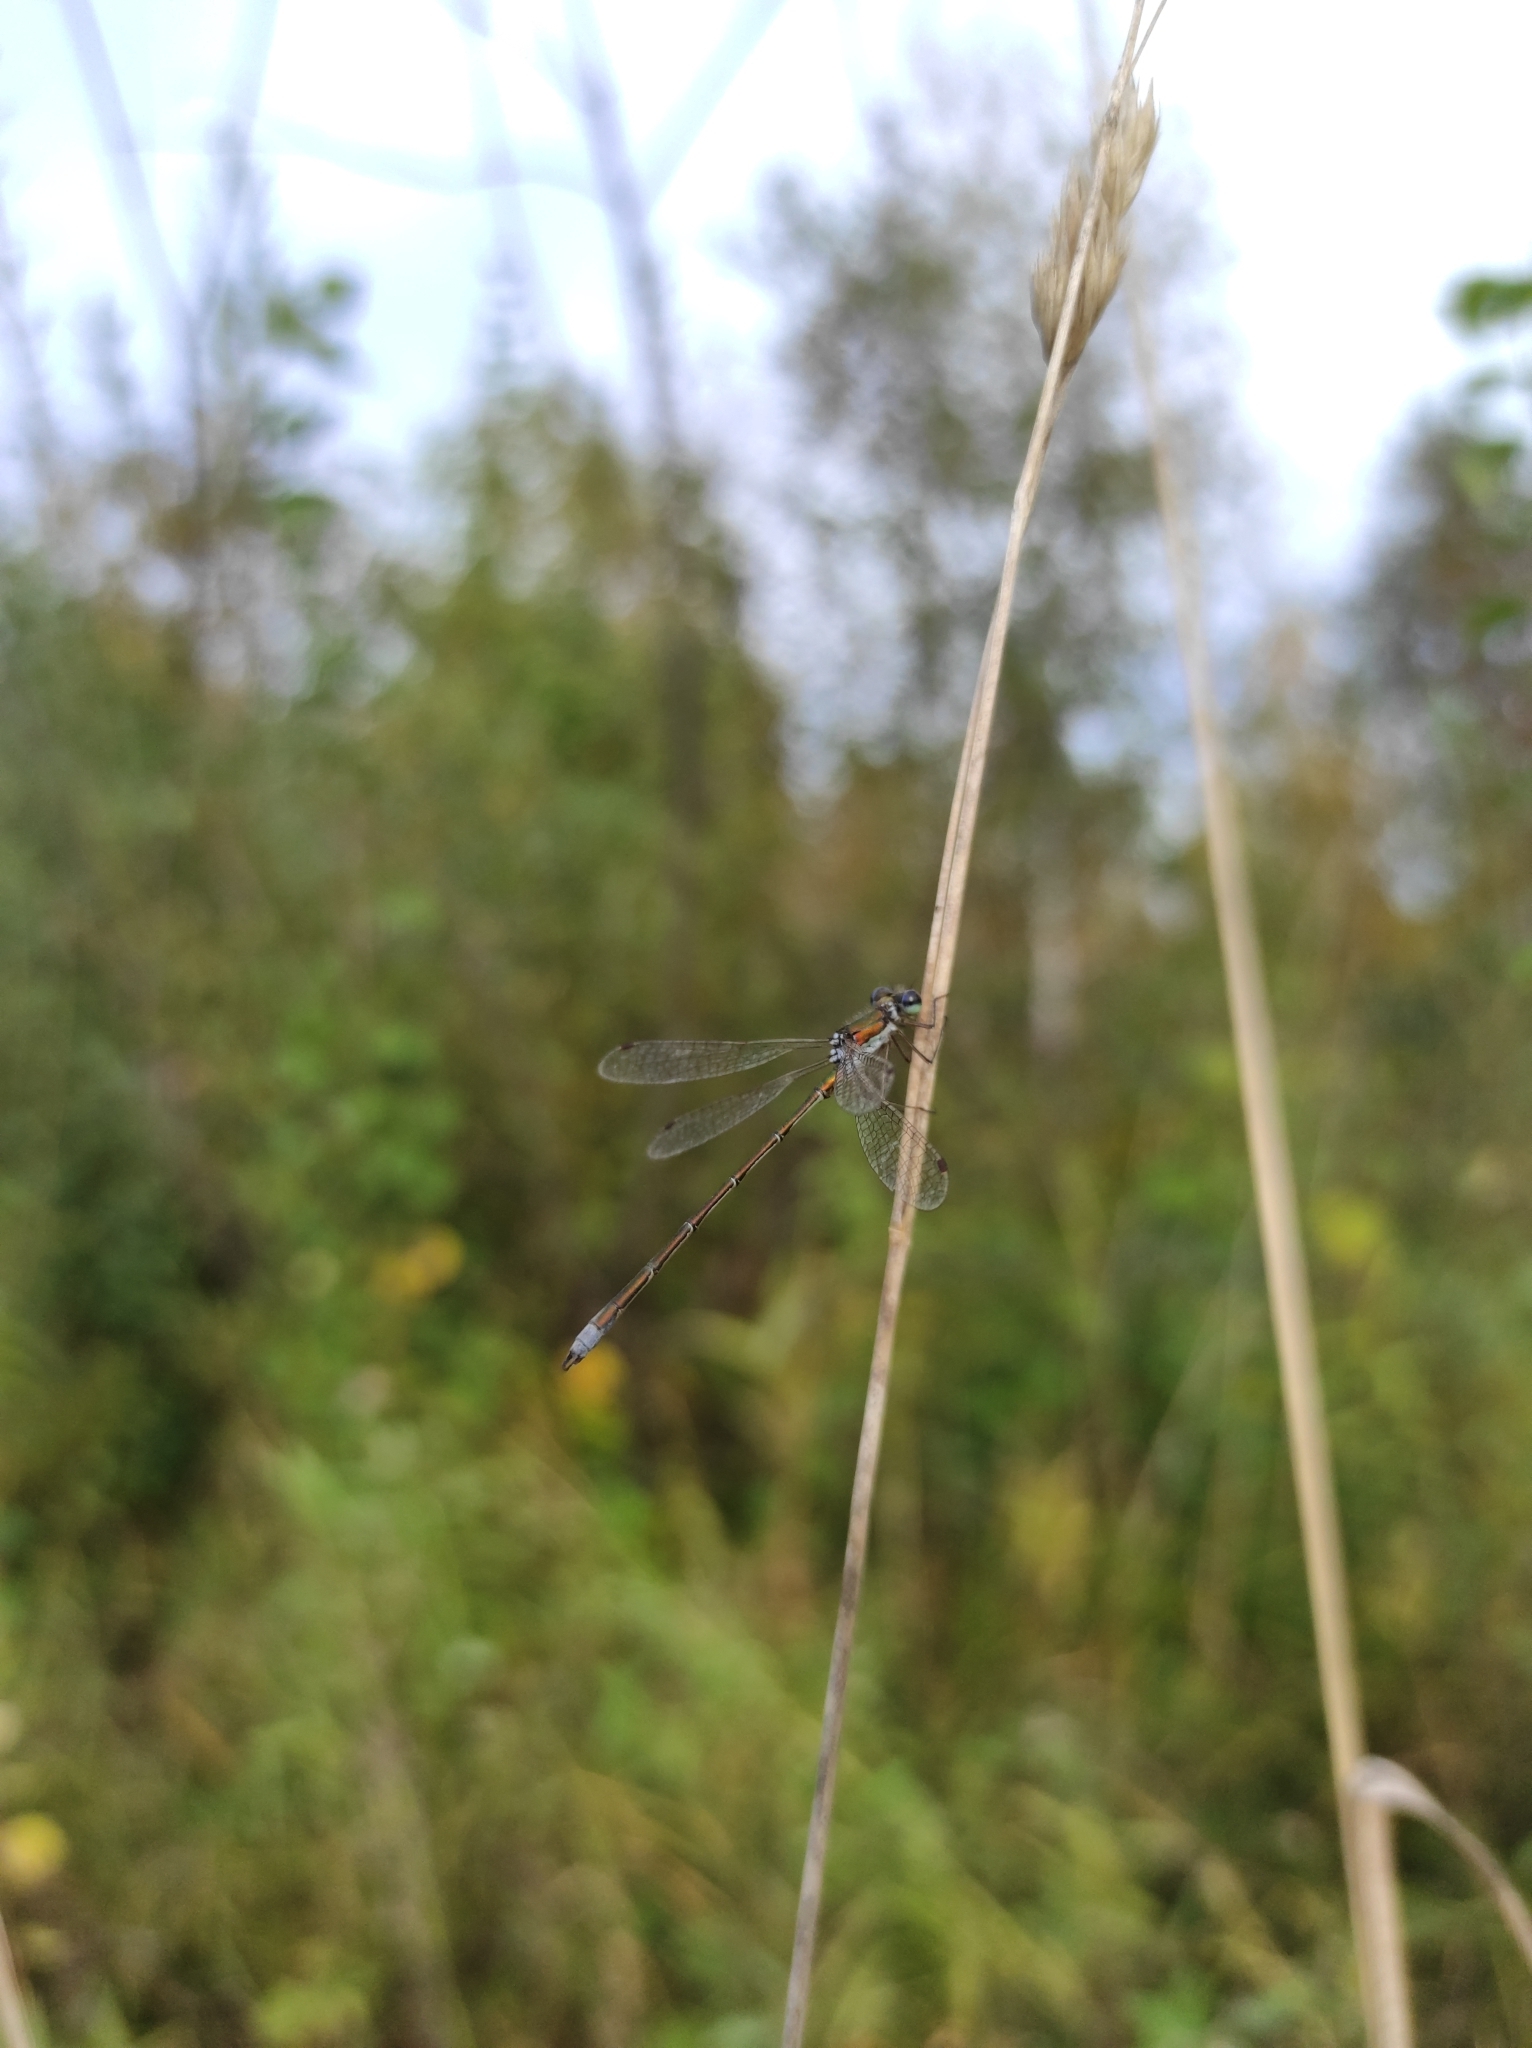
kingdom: Animalia
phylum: Arthropoda
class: Insecta
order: Odonata
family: Lestidae
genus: Lestes
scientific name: Lestes virens
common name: Small emerald spreadwing
